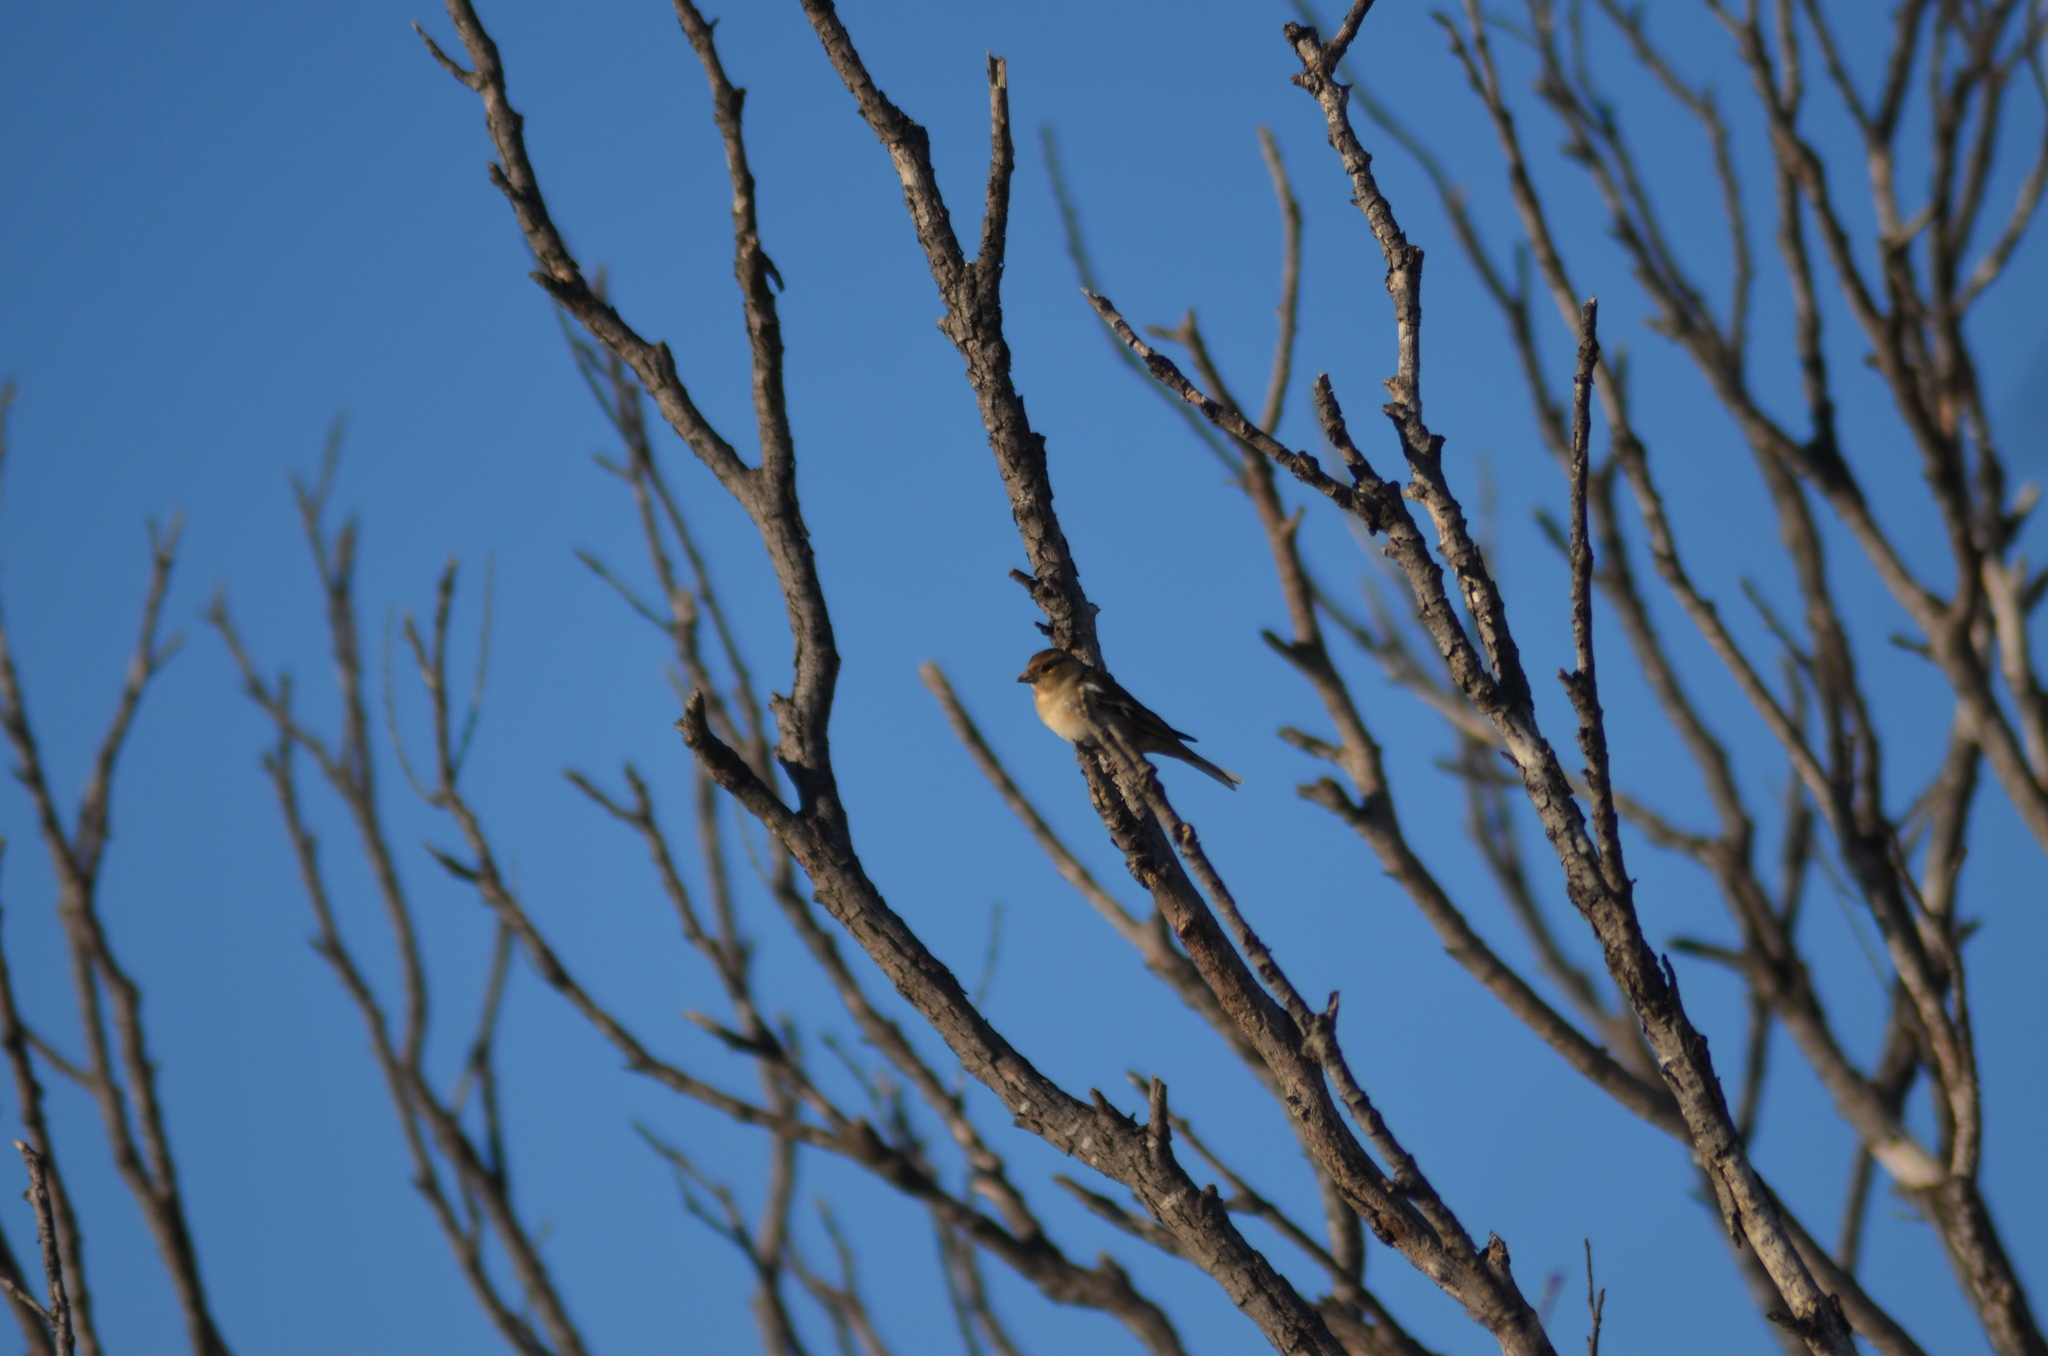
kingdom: Animalia
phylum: Chordata
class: Aves
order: Passeriformes
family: Fringillidae
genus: Fringilla
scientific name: Fringilla coelebs
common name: Common chaffinch
